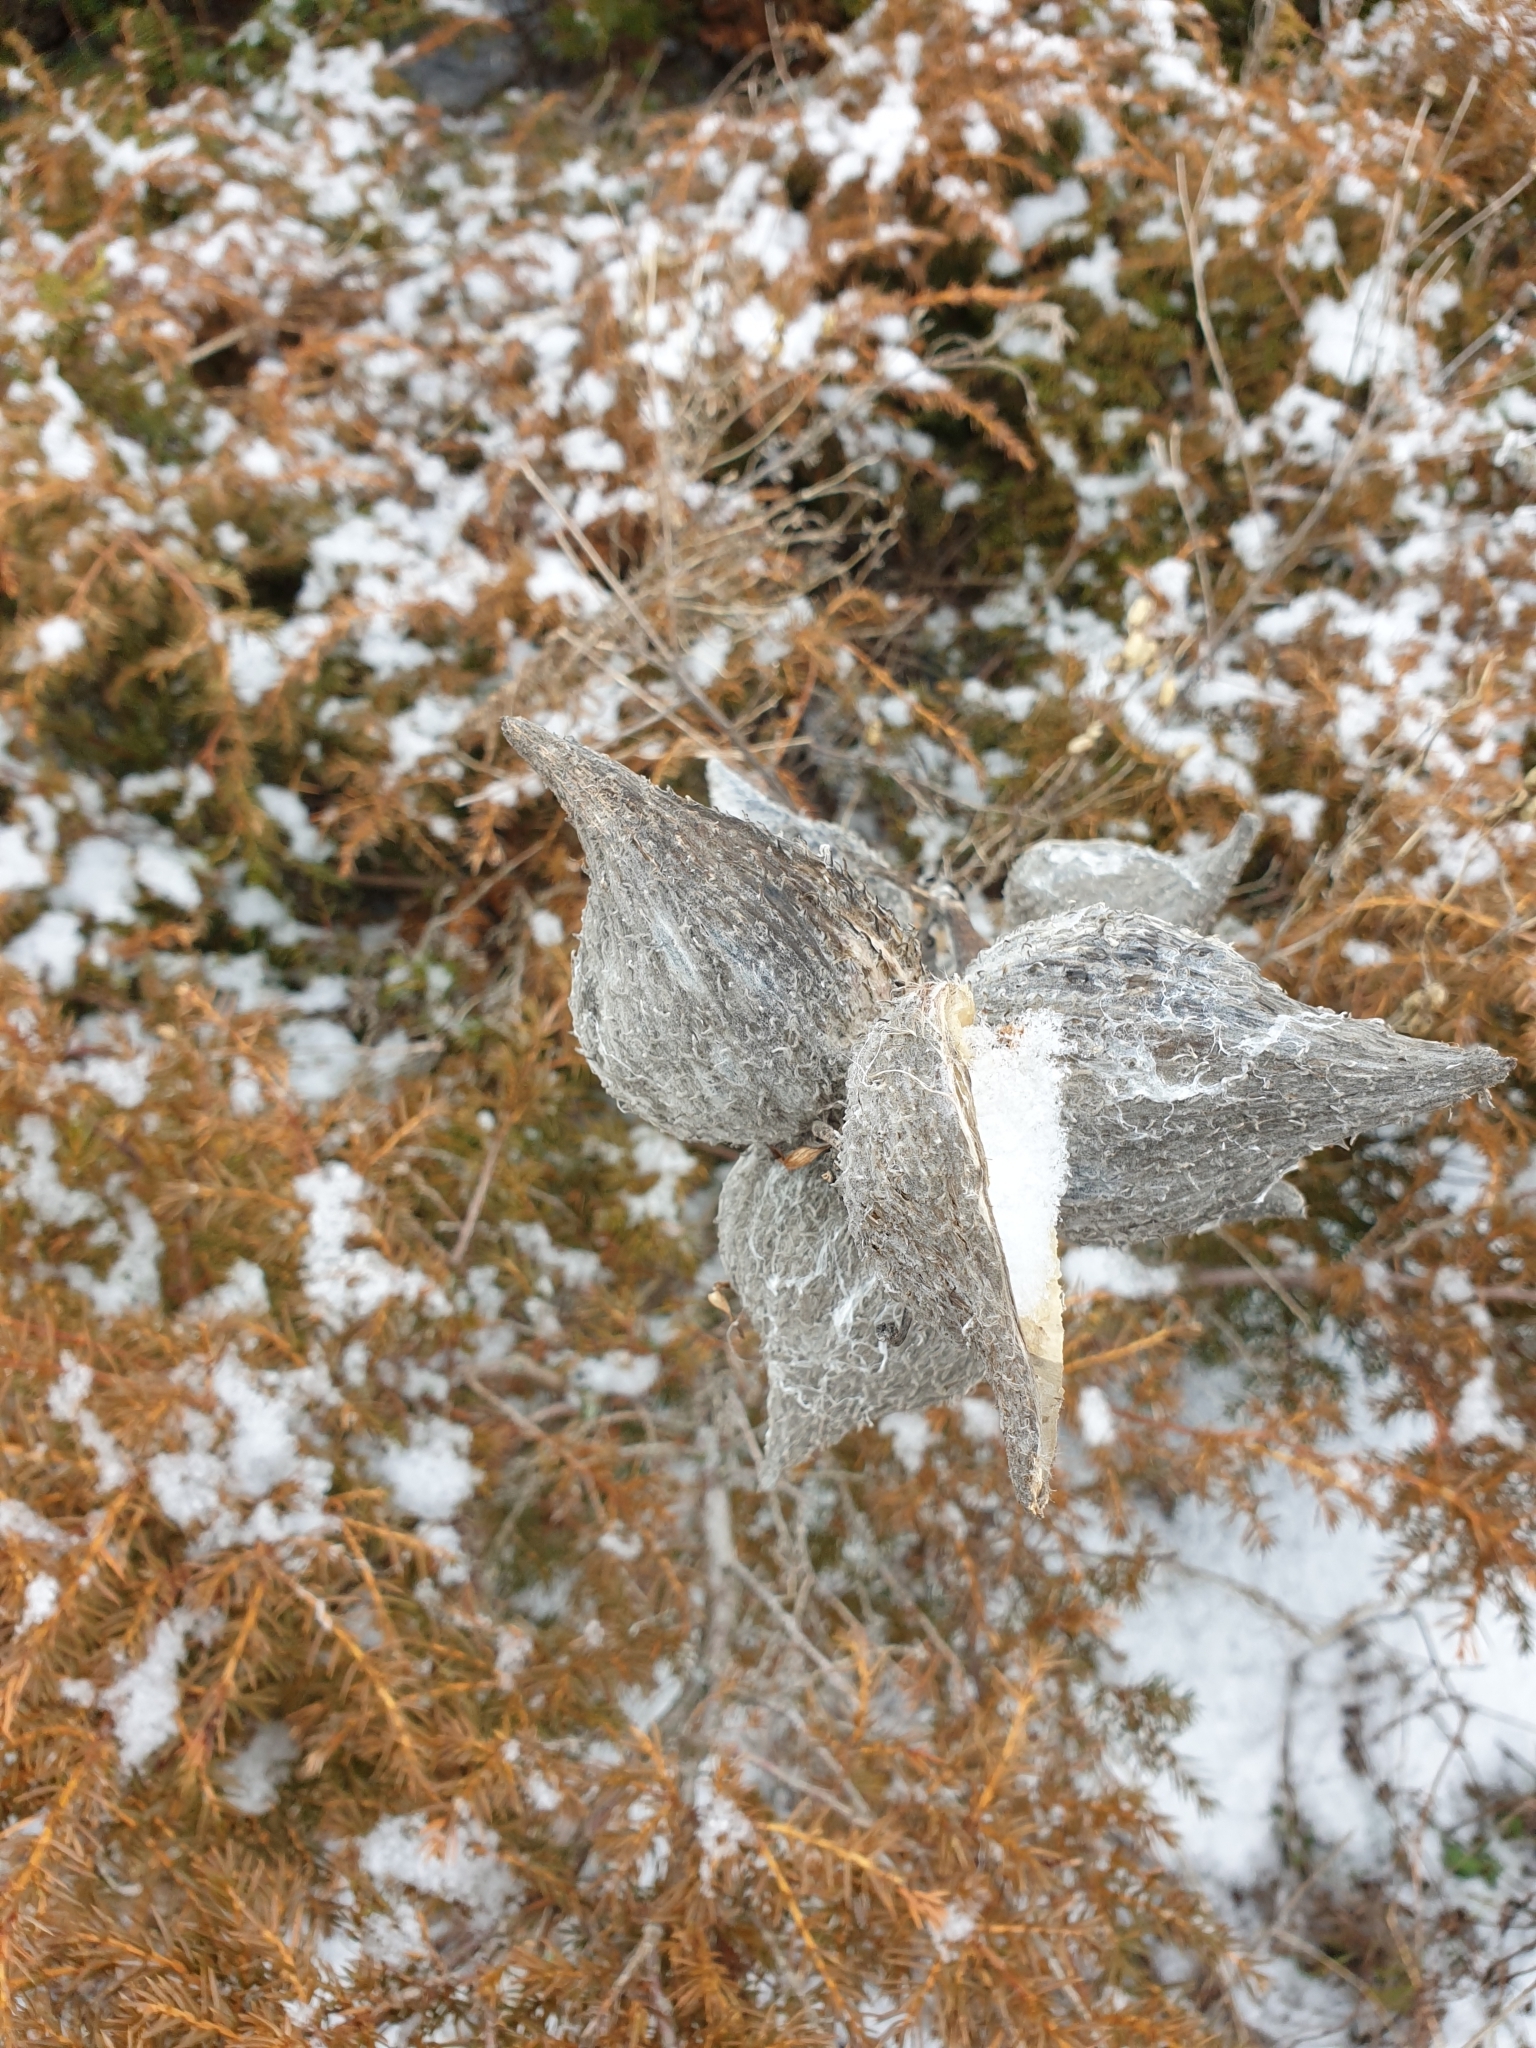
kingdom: Plantae
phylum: Tracheophyta
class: Magnoliopsida
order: Gentianales
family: Apocynaceae
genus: Asclepias
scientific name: Asclepias syriaca
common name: Common milkweed
